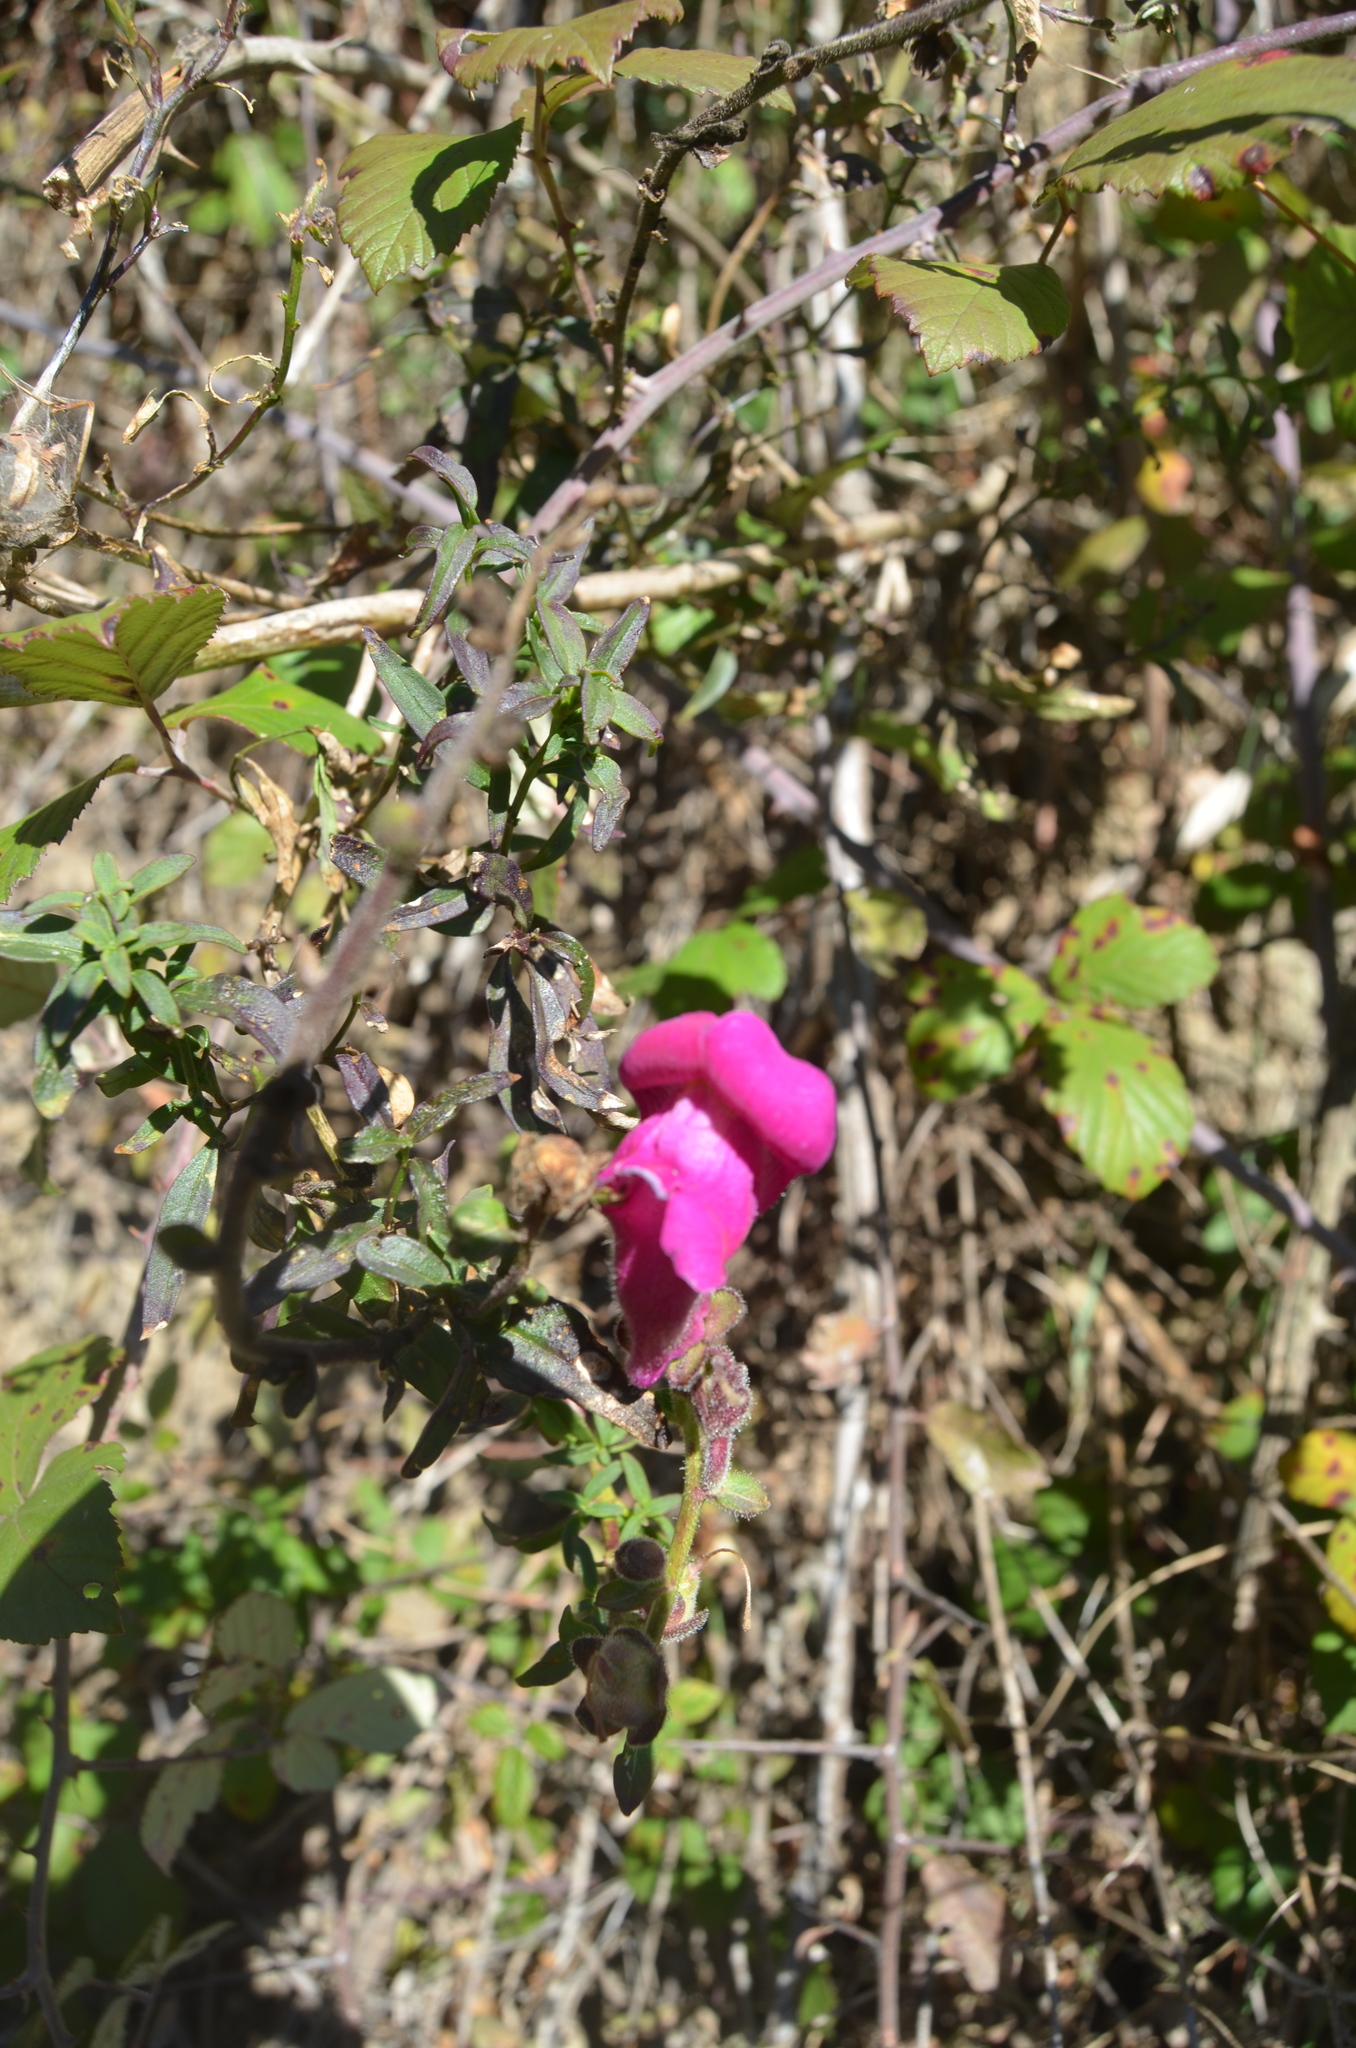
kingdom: Plantae
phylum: Tracheophyta
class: Magnoliopsida
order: Lamiales
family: Plantaginaceae
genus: Antirrhinum
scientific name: Antirrhinum majus
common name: Snapdragon
